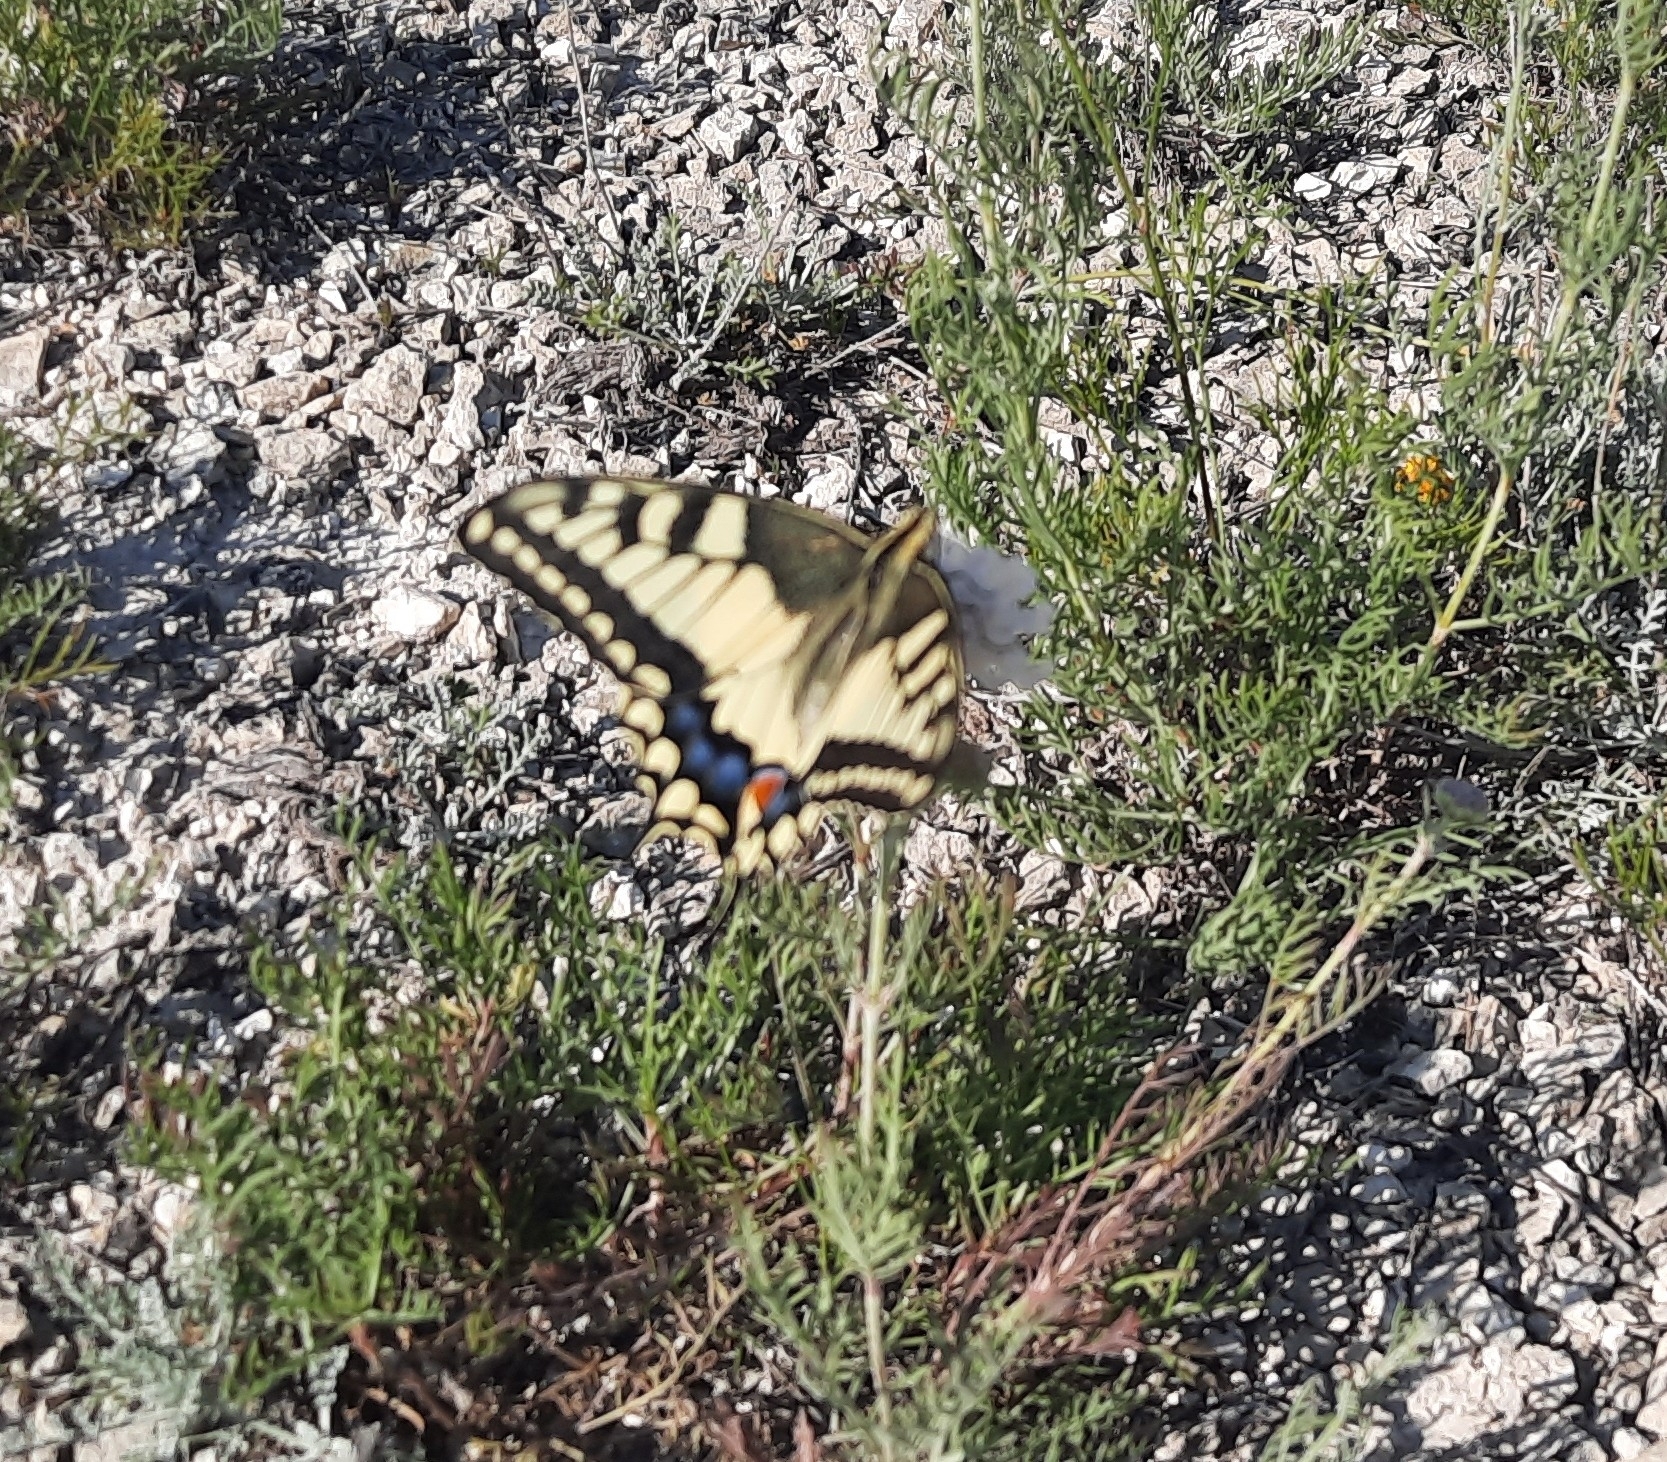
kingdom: Animalia
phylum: Arthropoda
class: Insecta
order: Lepidoptera
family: Papilionidae
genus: Papilio
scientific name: Papilio machaon
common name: Swallowtail
